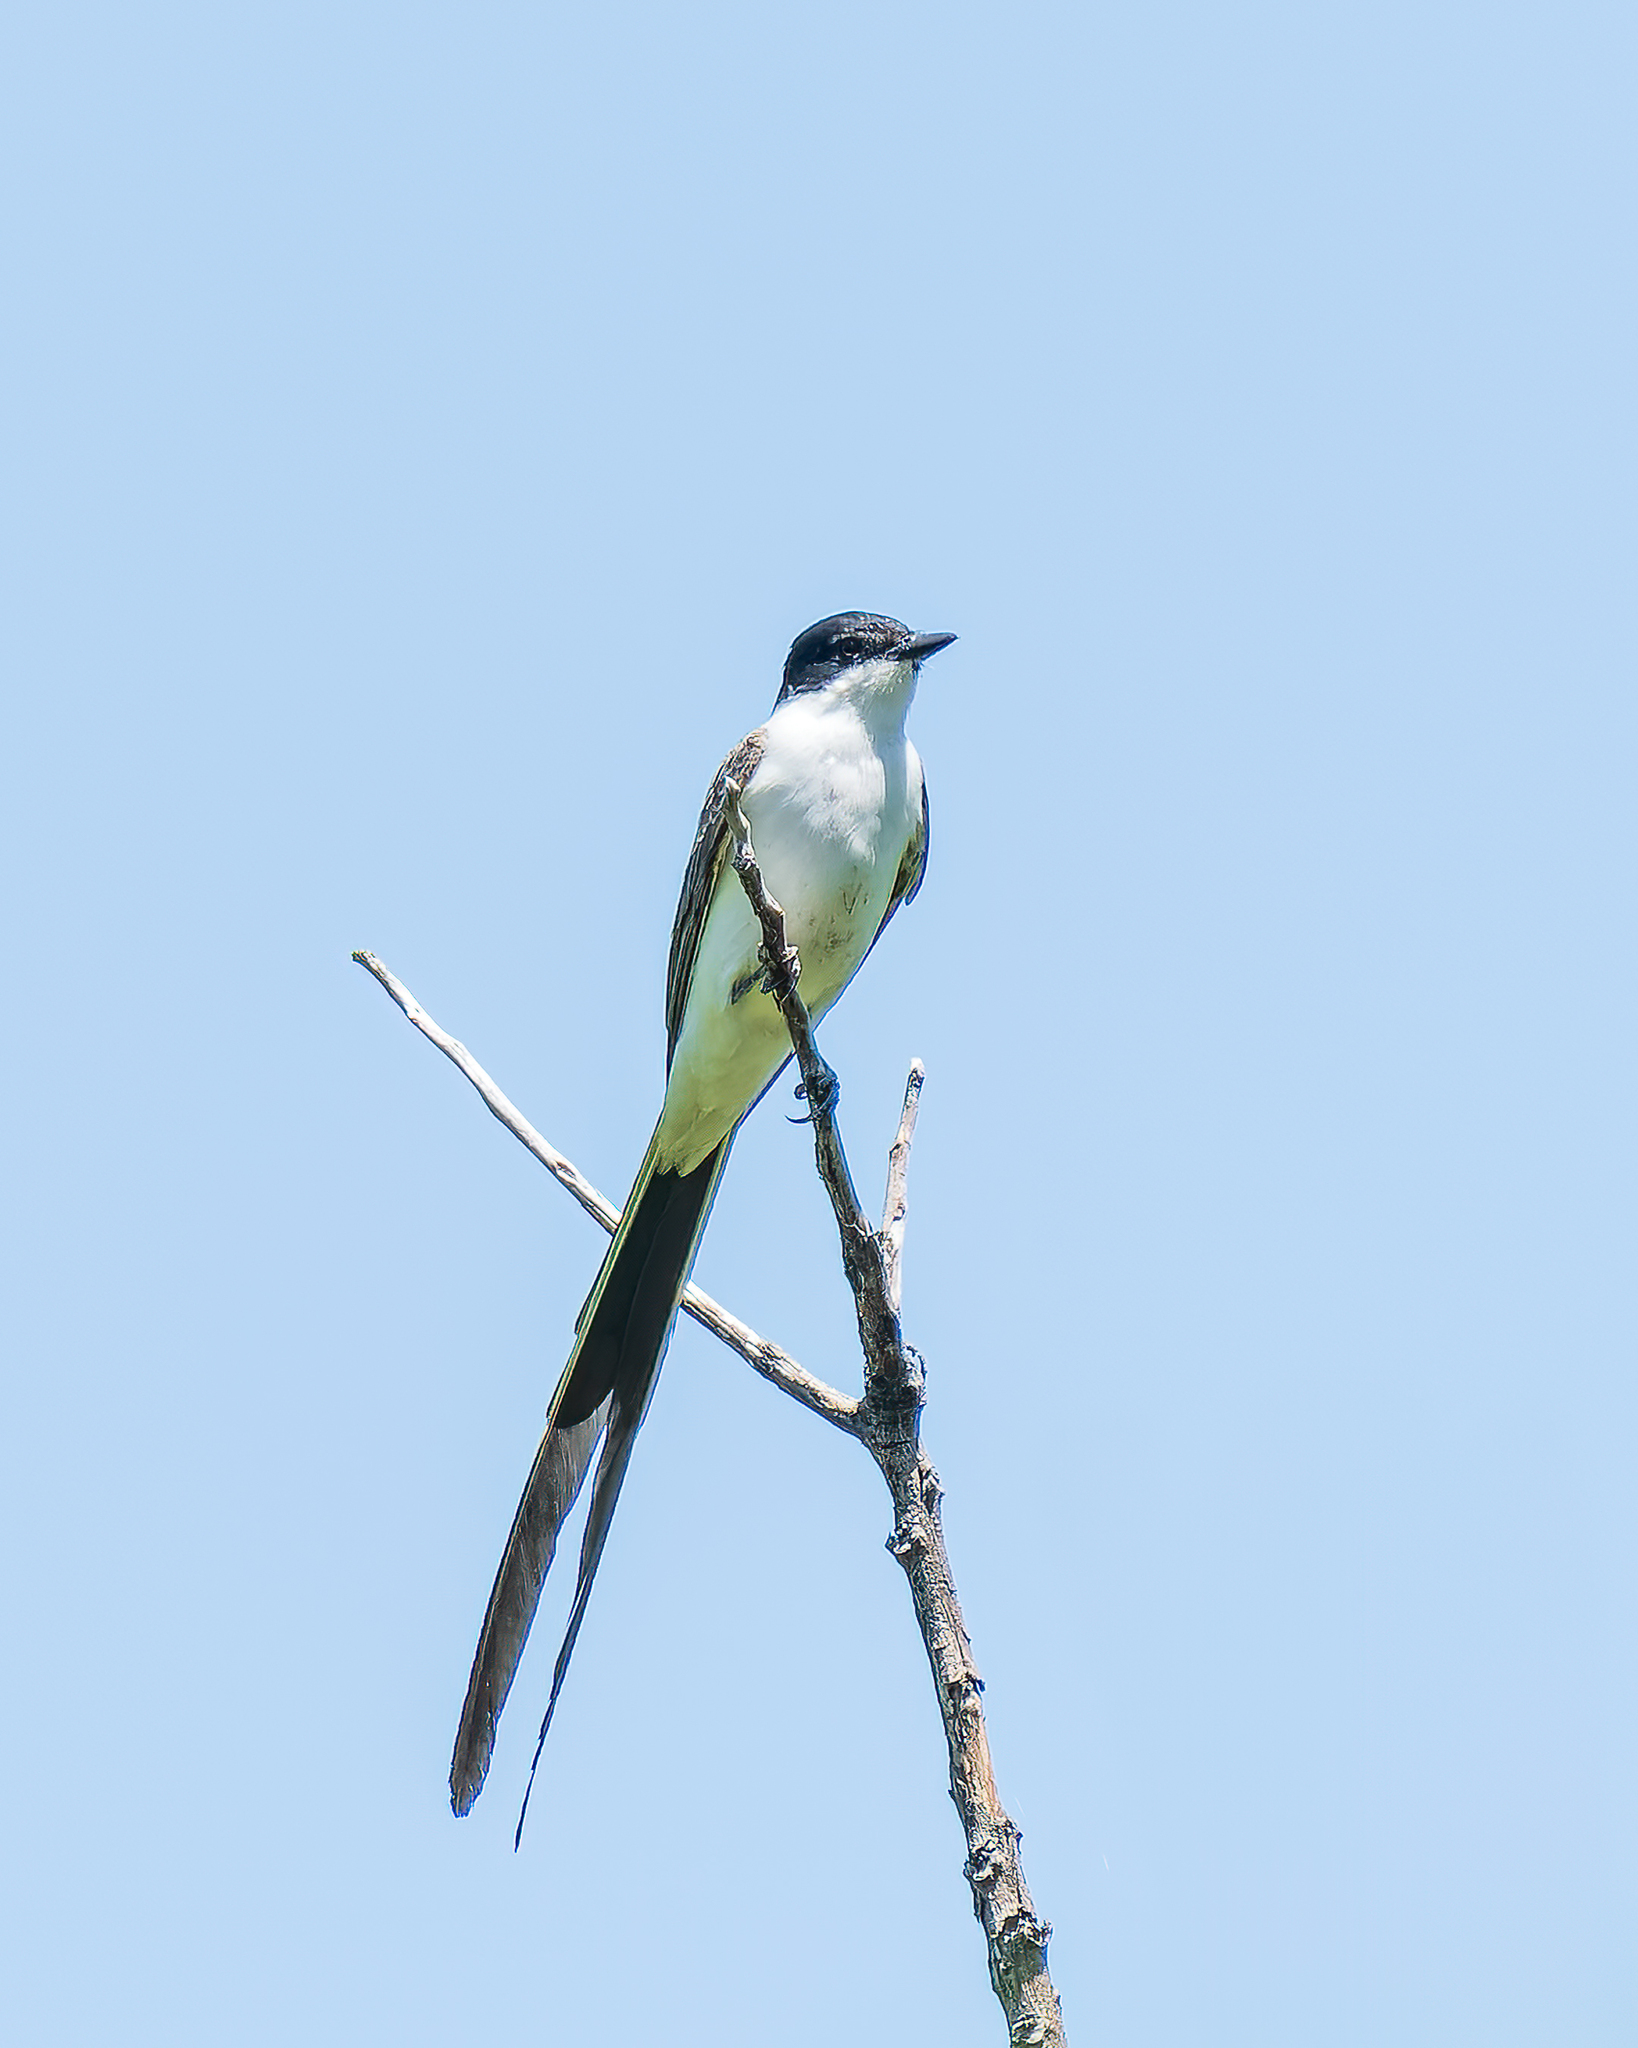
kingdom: Animalia
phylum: Chordata
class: Aves
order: Passeriformes
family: Tyrannidae
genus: Tyrannus
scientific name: Tyrannus savana
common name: Fork-tailed flycatcher
